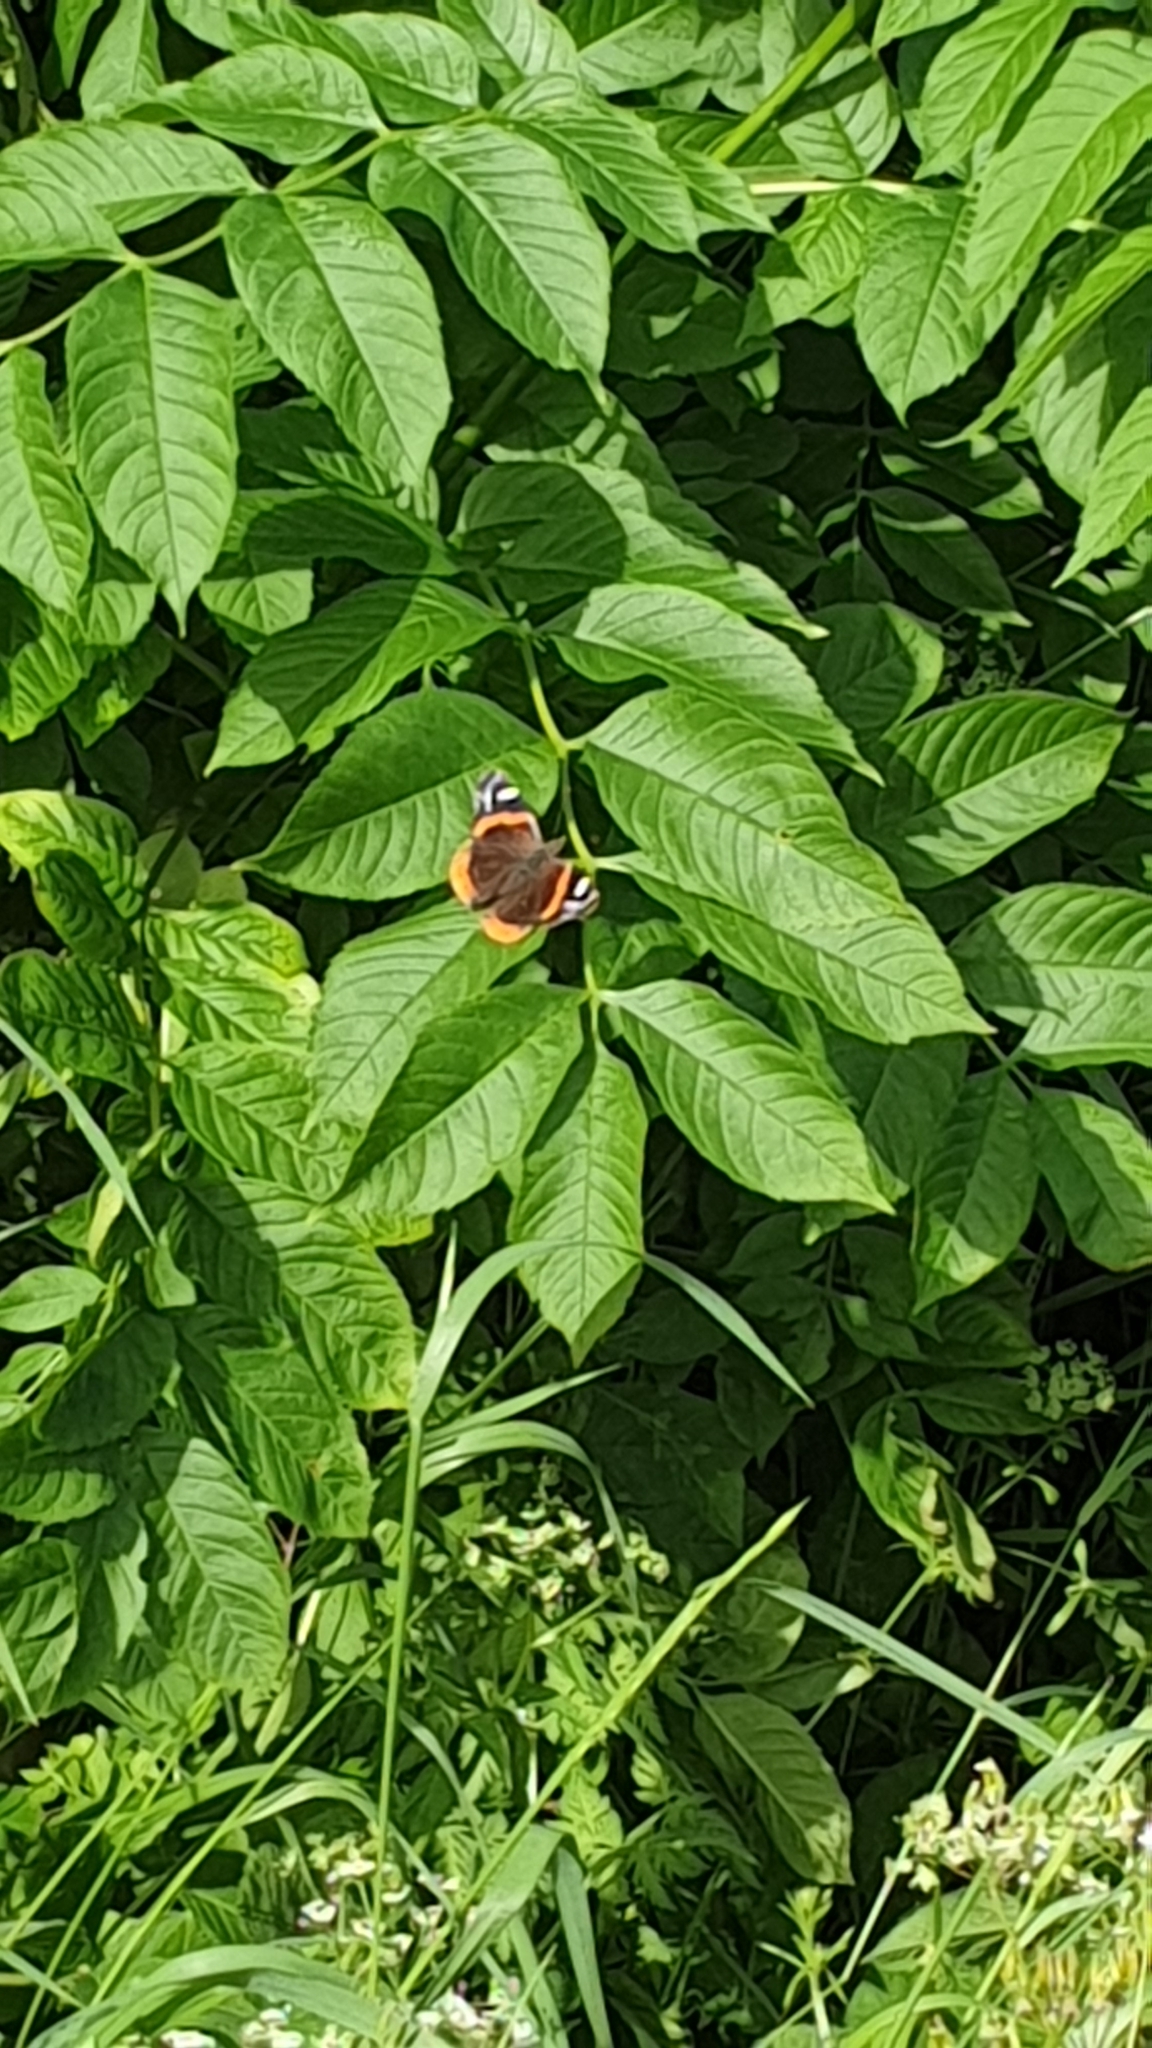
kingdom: Animalia
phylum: Arthropoda
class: Insecta
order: Lepidoptera
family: Nymphalidae
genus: Vanessa
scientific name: Vanessa atalanta
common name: Red admiral
